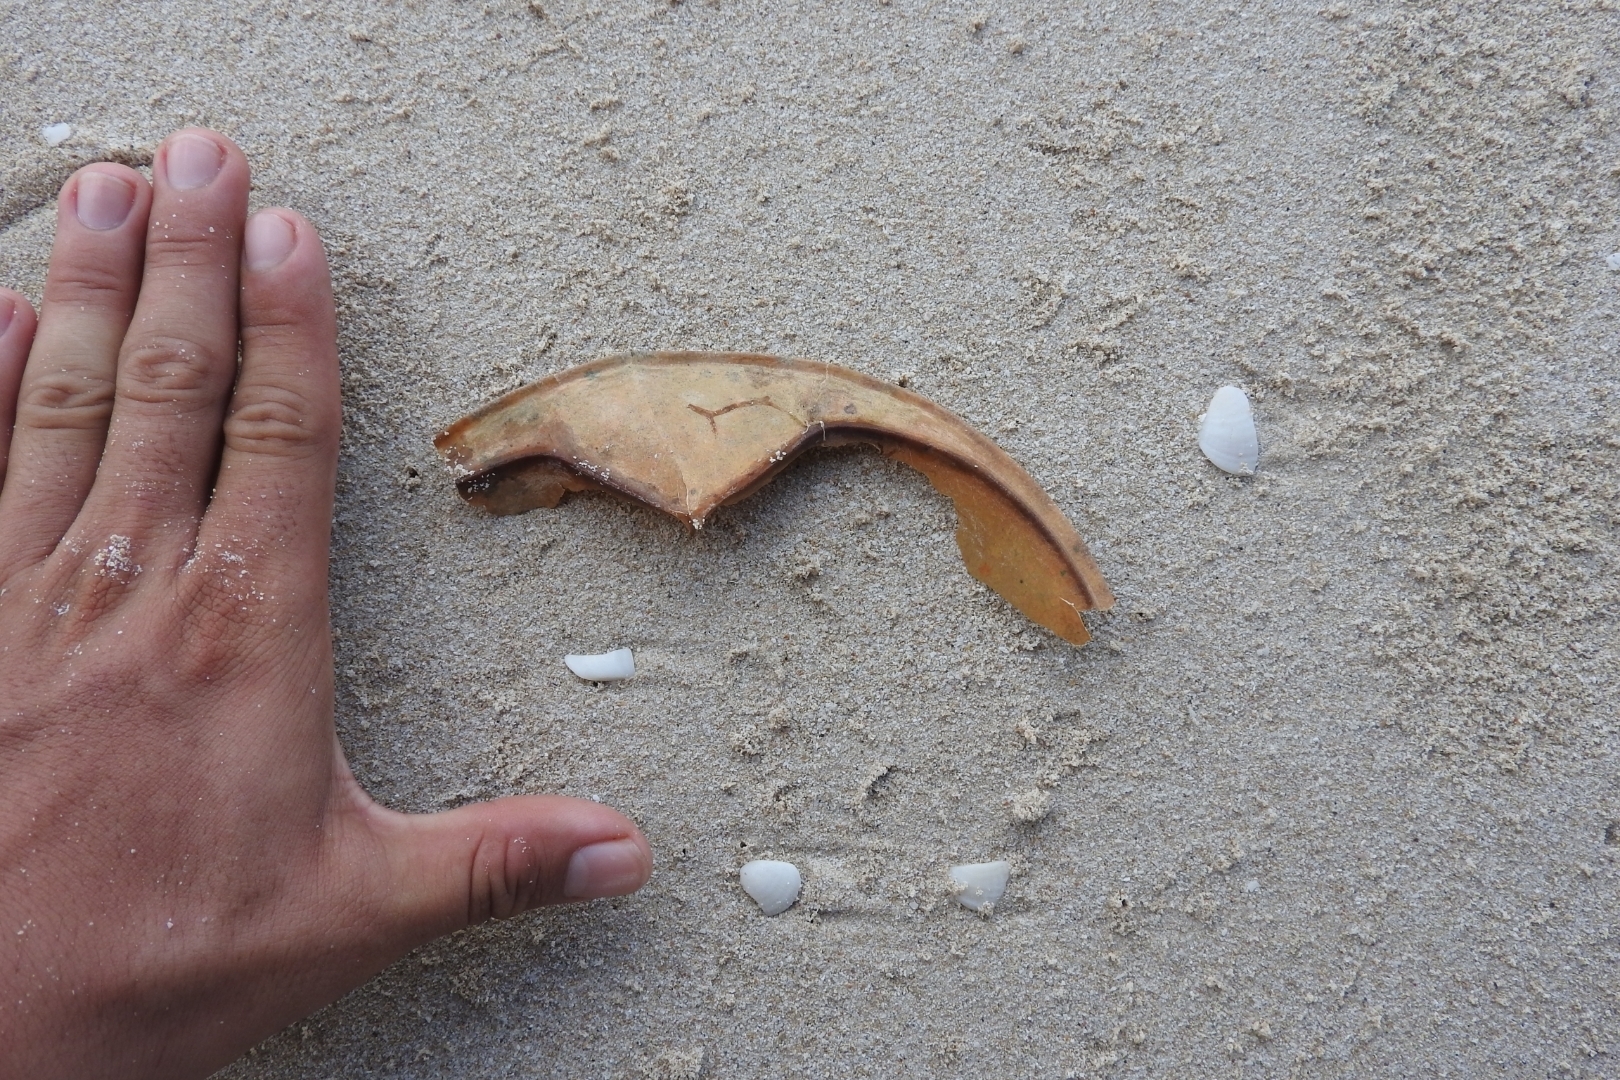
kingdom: Animalia
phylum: Arthropoda
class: Merostomata
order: Xiphosurida
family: Limulidae
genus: Limulus
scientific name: Limulus polyphemus
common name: Horseshoe crab
